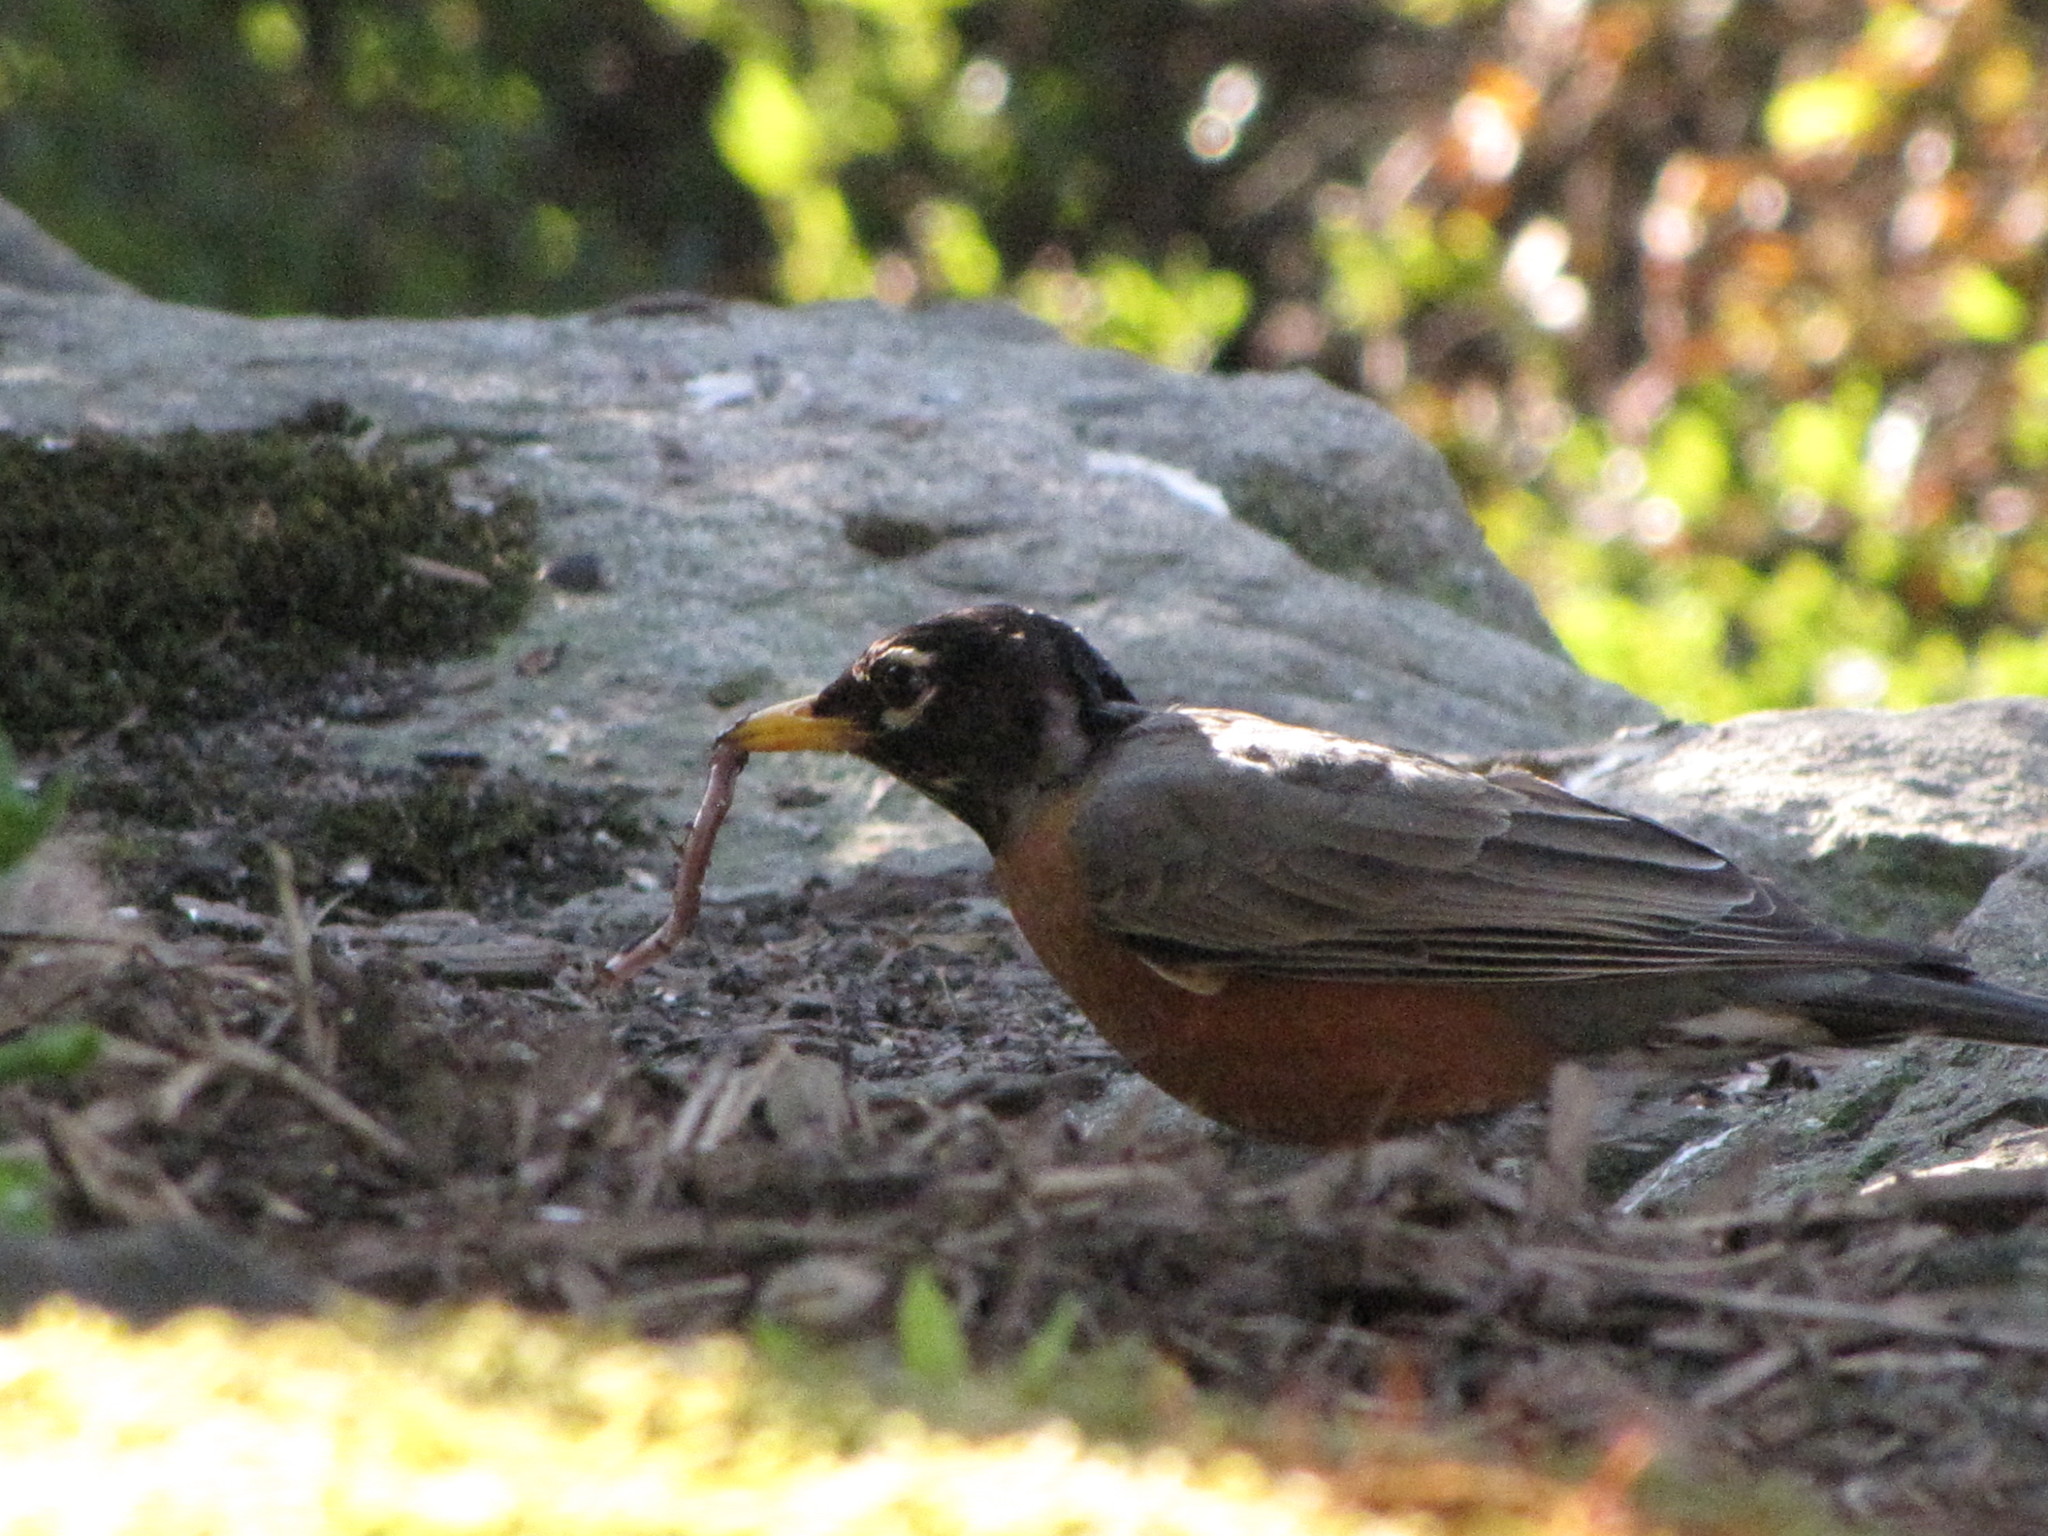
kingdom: Animalia
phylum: Chordata
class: Aves
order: Passeriformes
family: Turdidae
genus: Turdus
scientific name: Turdus migratorius
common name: American robin
